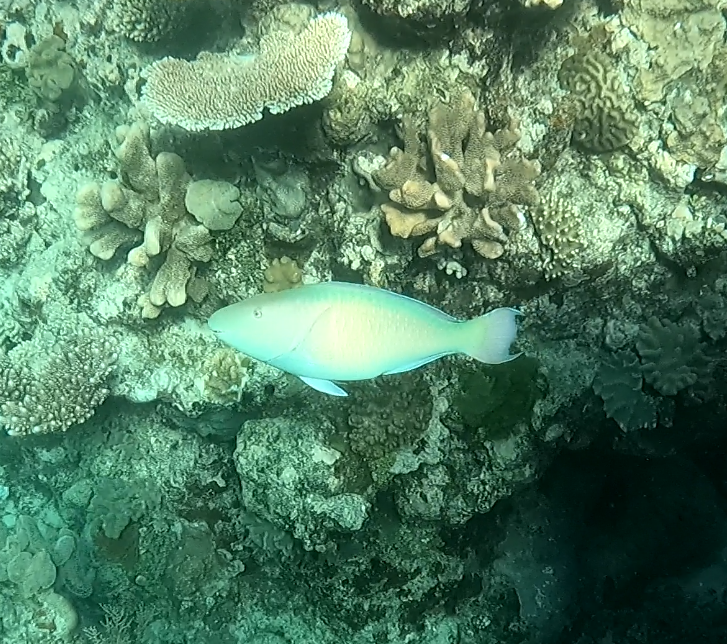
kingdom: Animalia
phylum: Chordata
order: Perciformes
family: Scaridae
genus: Hipposcarus
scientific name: Hipposcarus longiceps
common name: Pacific longnose parrotfish
